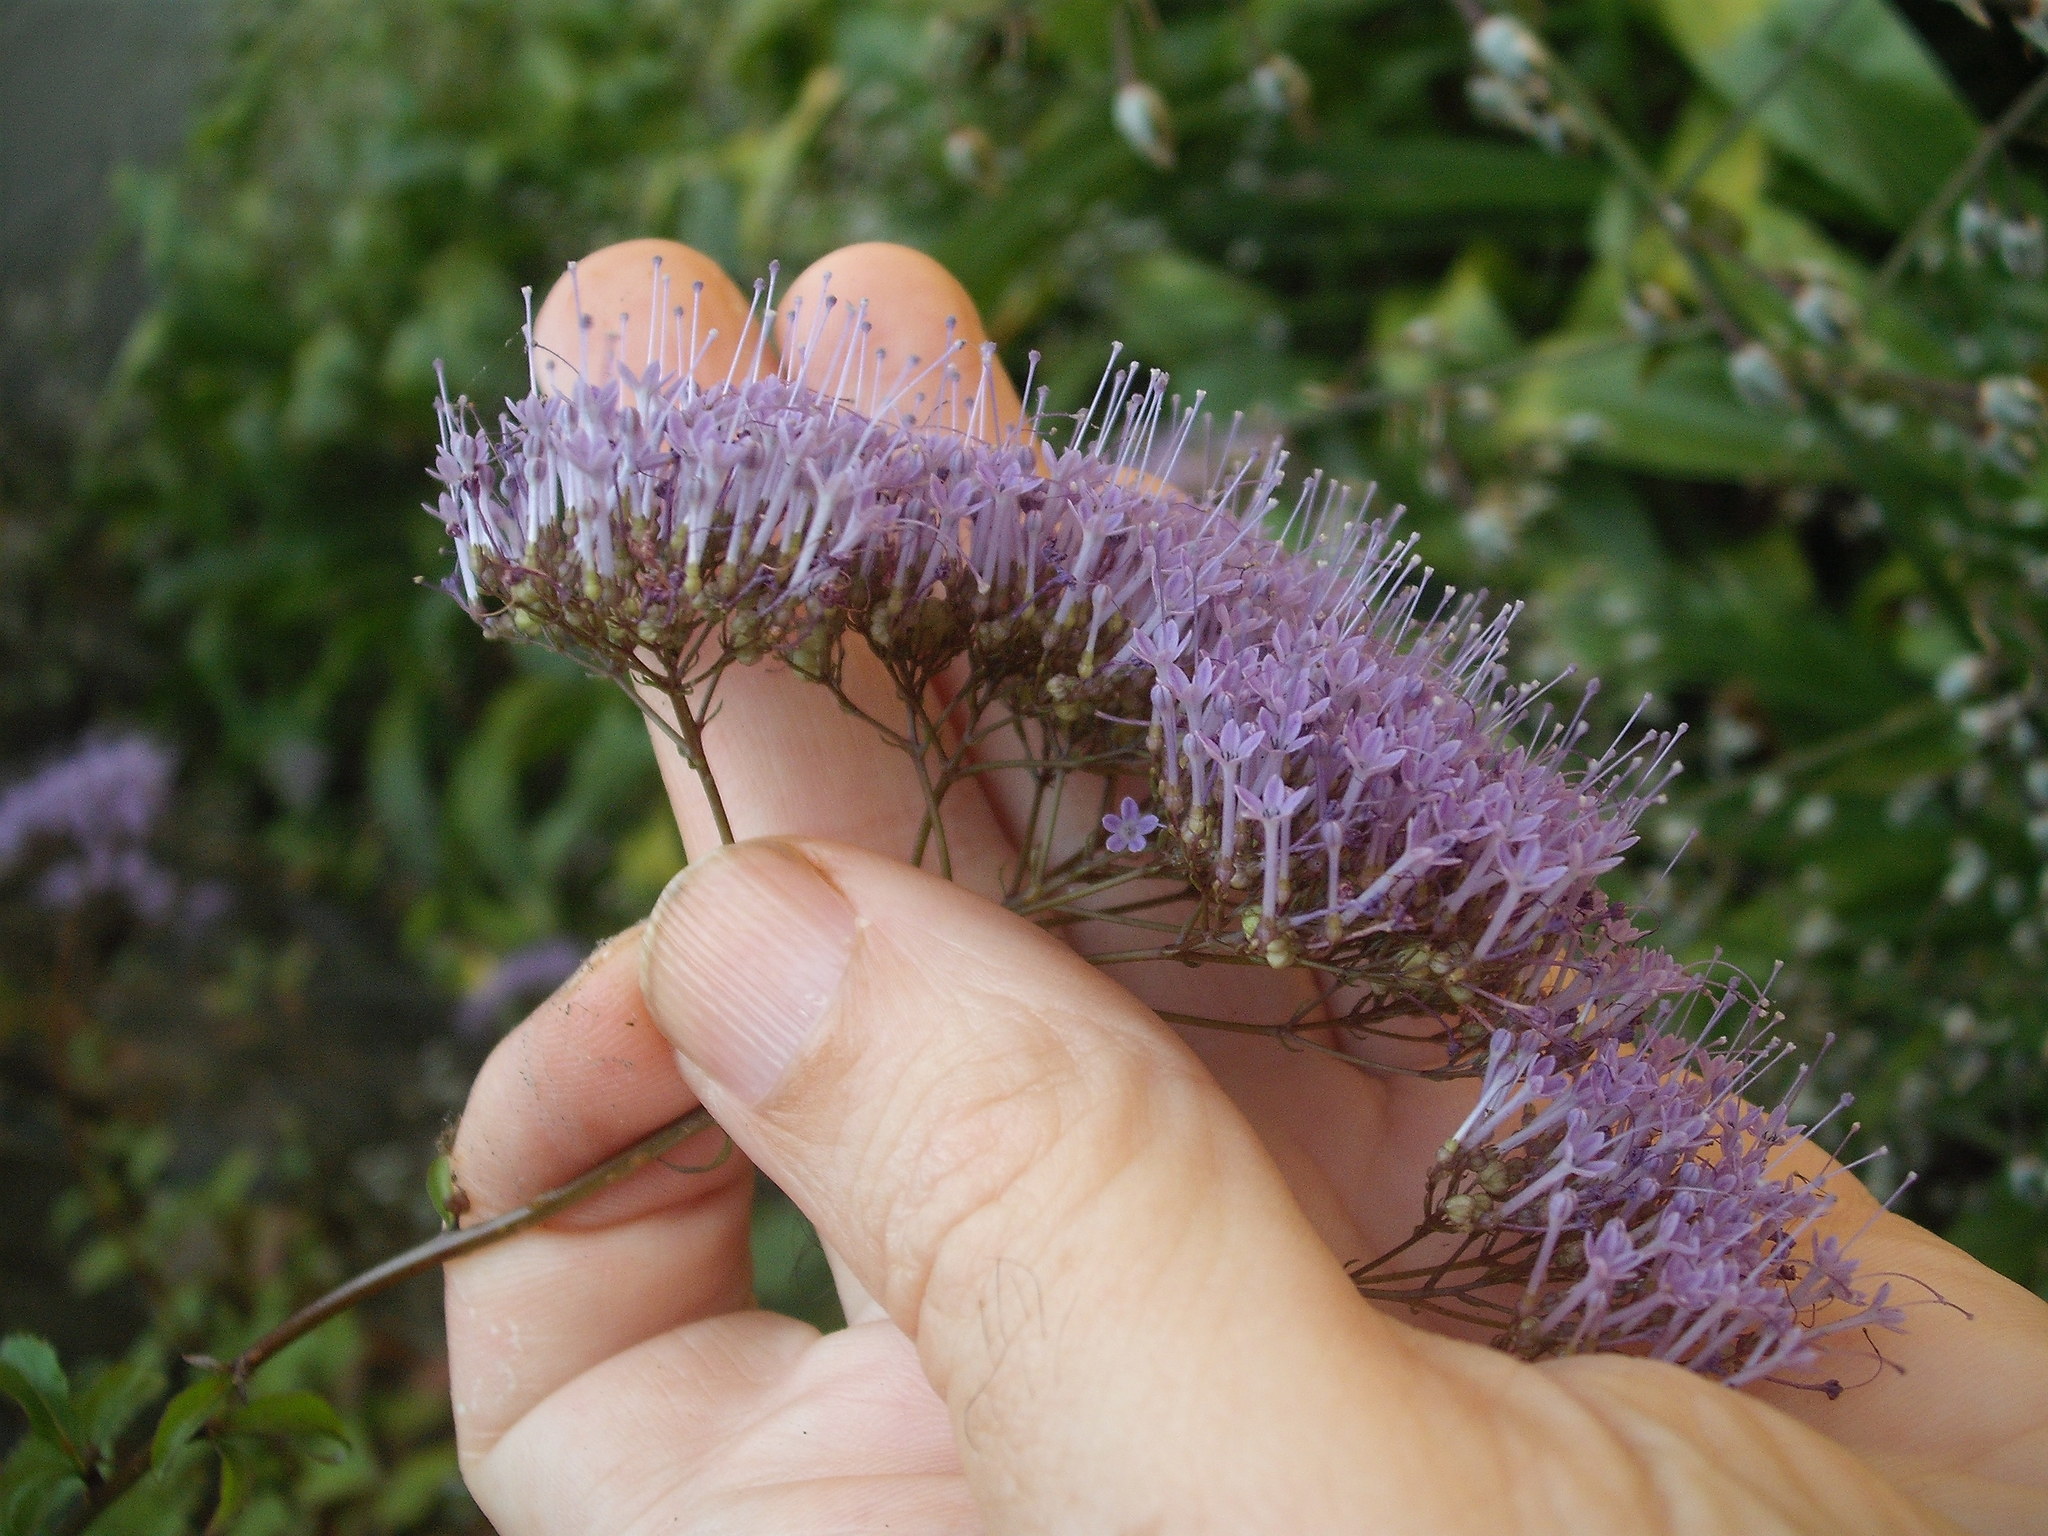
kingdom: Plantae
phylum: Tracheophyta
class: Magnoliopsida
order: Asterales
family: Campanulaceae
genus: Trachelium
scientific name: Trachelium caeruleum
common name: Throatwort
